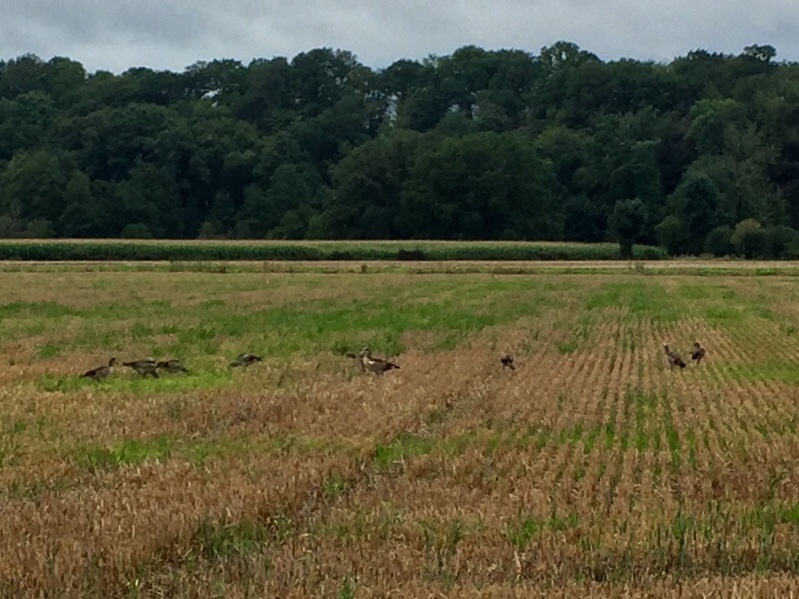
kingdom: Animalia
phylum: Chordata
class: Aves
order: Anseriformes
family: Anatidae
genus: Alopochen
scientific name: Alopochen aegyptiaca
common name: Egyptian goose
